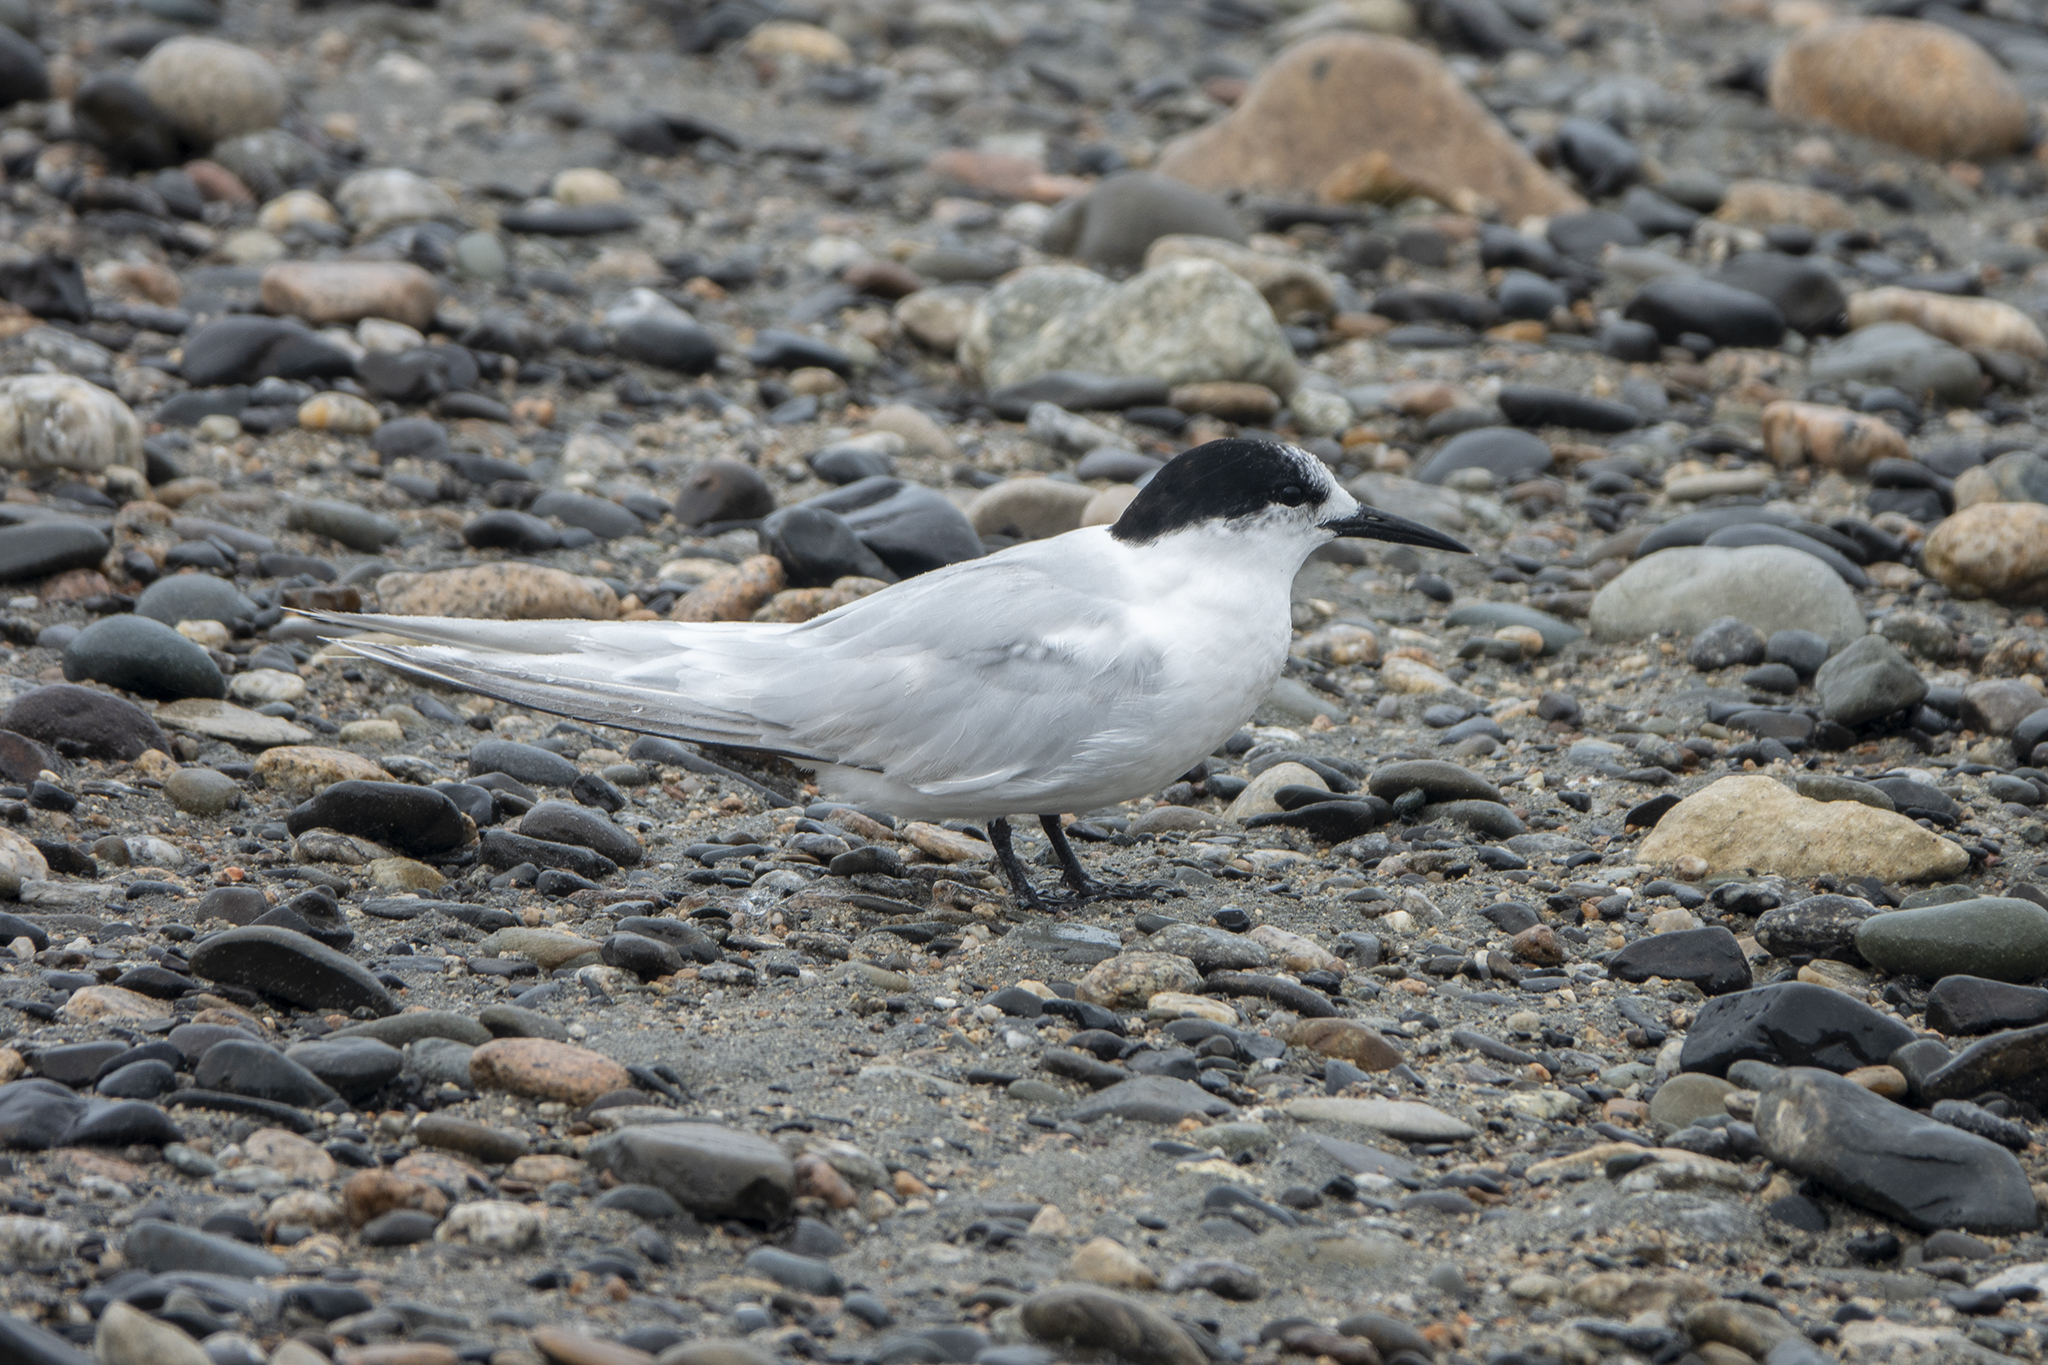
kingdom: Animalia
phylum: Chordata
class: Aves
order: Charadriiformes
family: Laridae
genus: Sterna
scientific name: Sterna striata
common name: White-fronted tern
